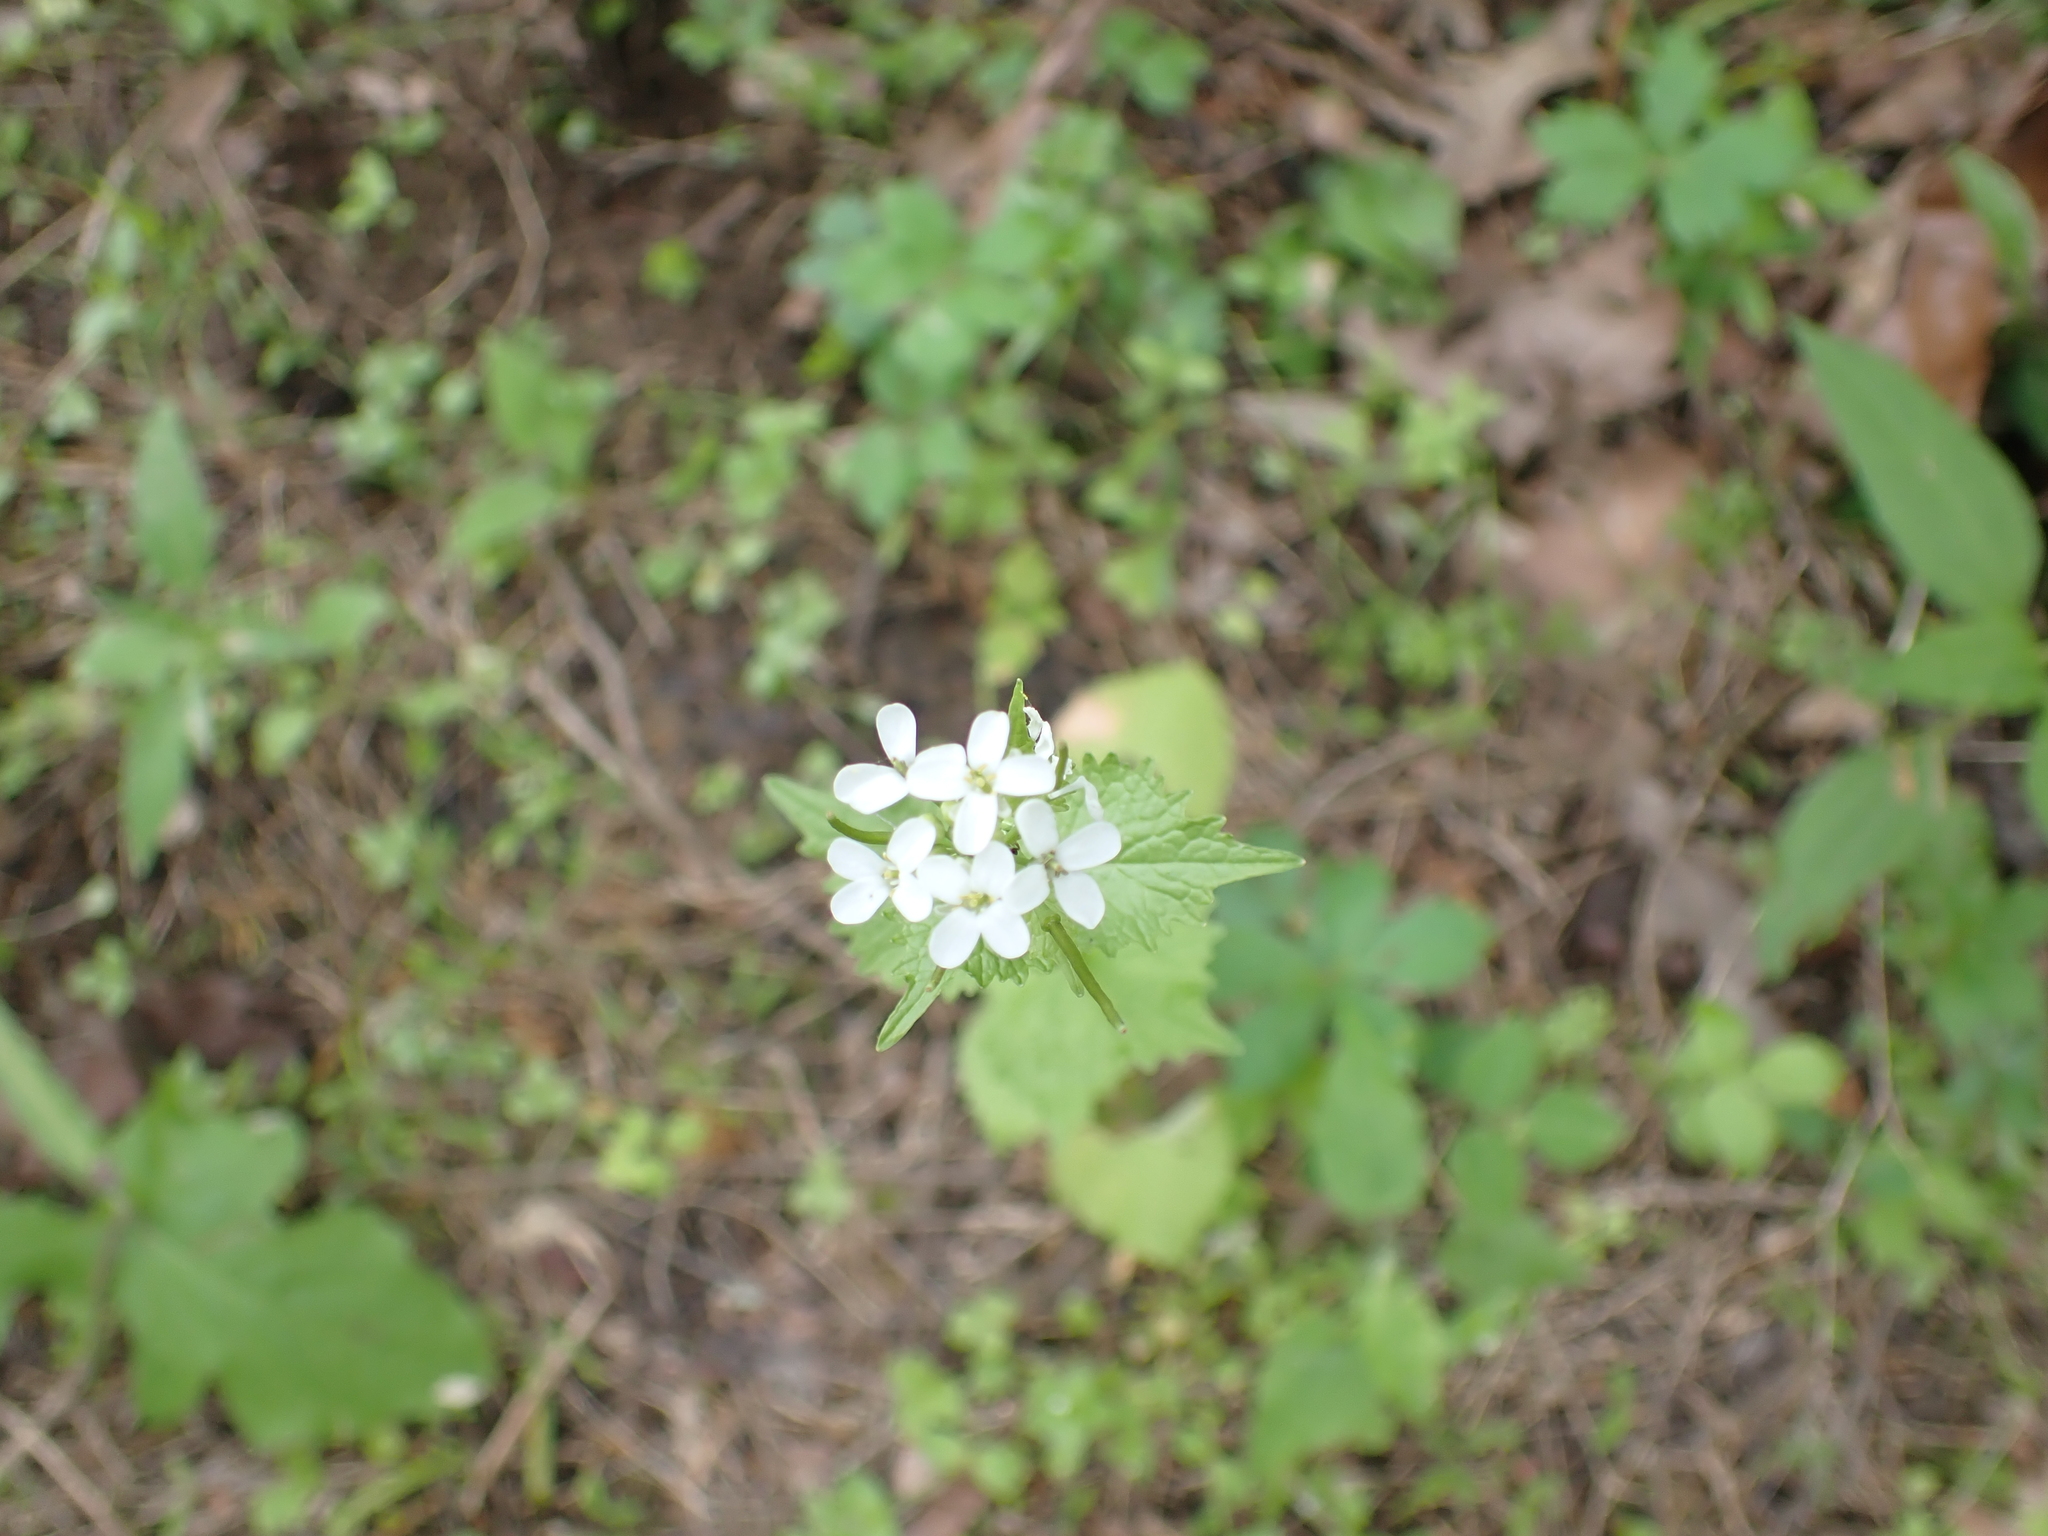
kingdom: Plantae
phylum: Tracheophyta
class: Magnoliopsida
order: Brassicales
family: Brassicaceae
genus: Alliaria
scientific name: Alliaria petiolata
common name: Garlic mustard
